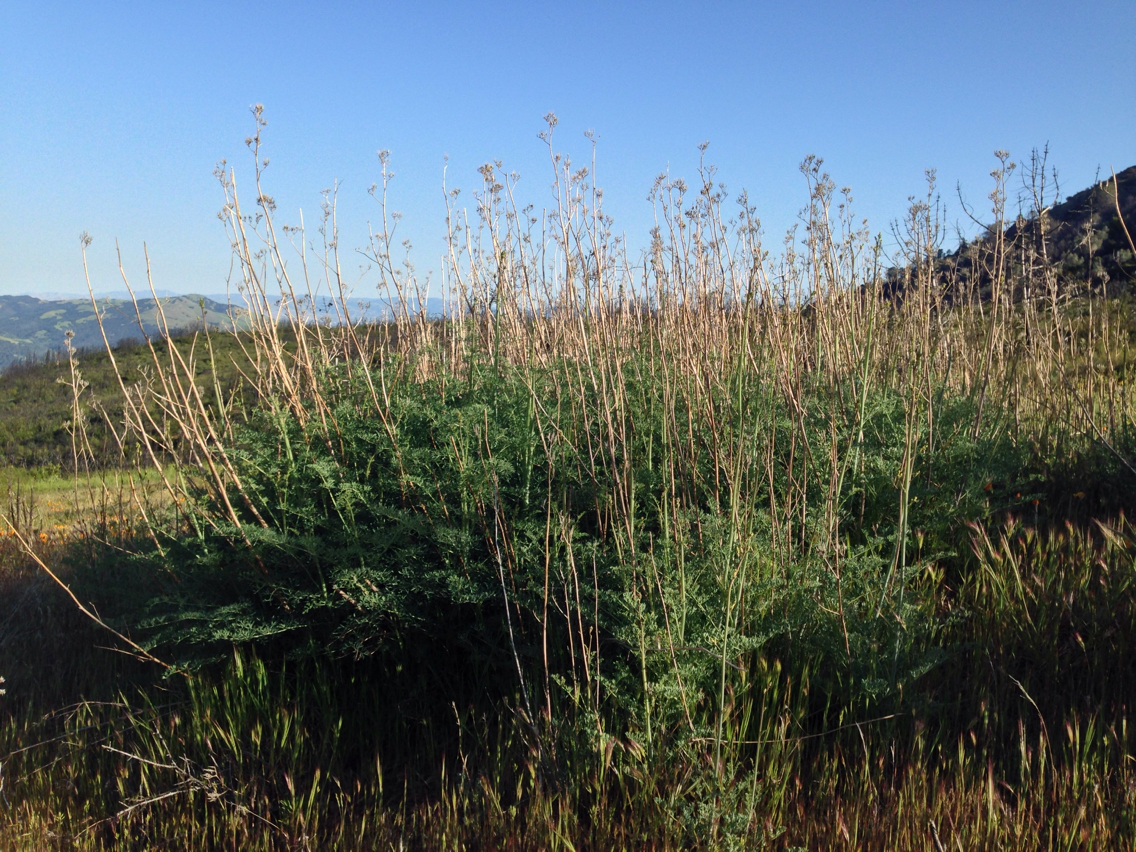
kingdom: Plantae
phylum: Tracheophyta
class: Magnoliopsida
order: Ranunculales
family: Papaveraceae
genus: Ehrendorferia
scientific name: Ehrendorferia chrysantha
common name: Golden eardrops
